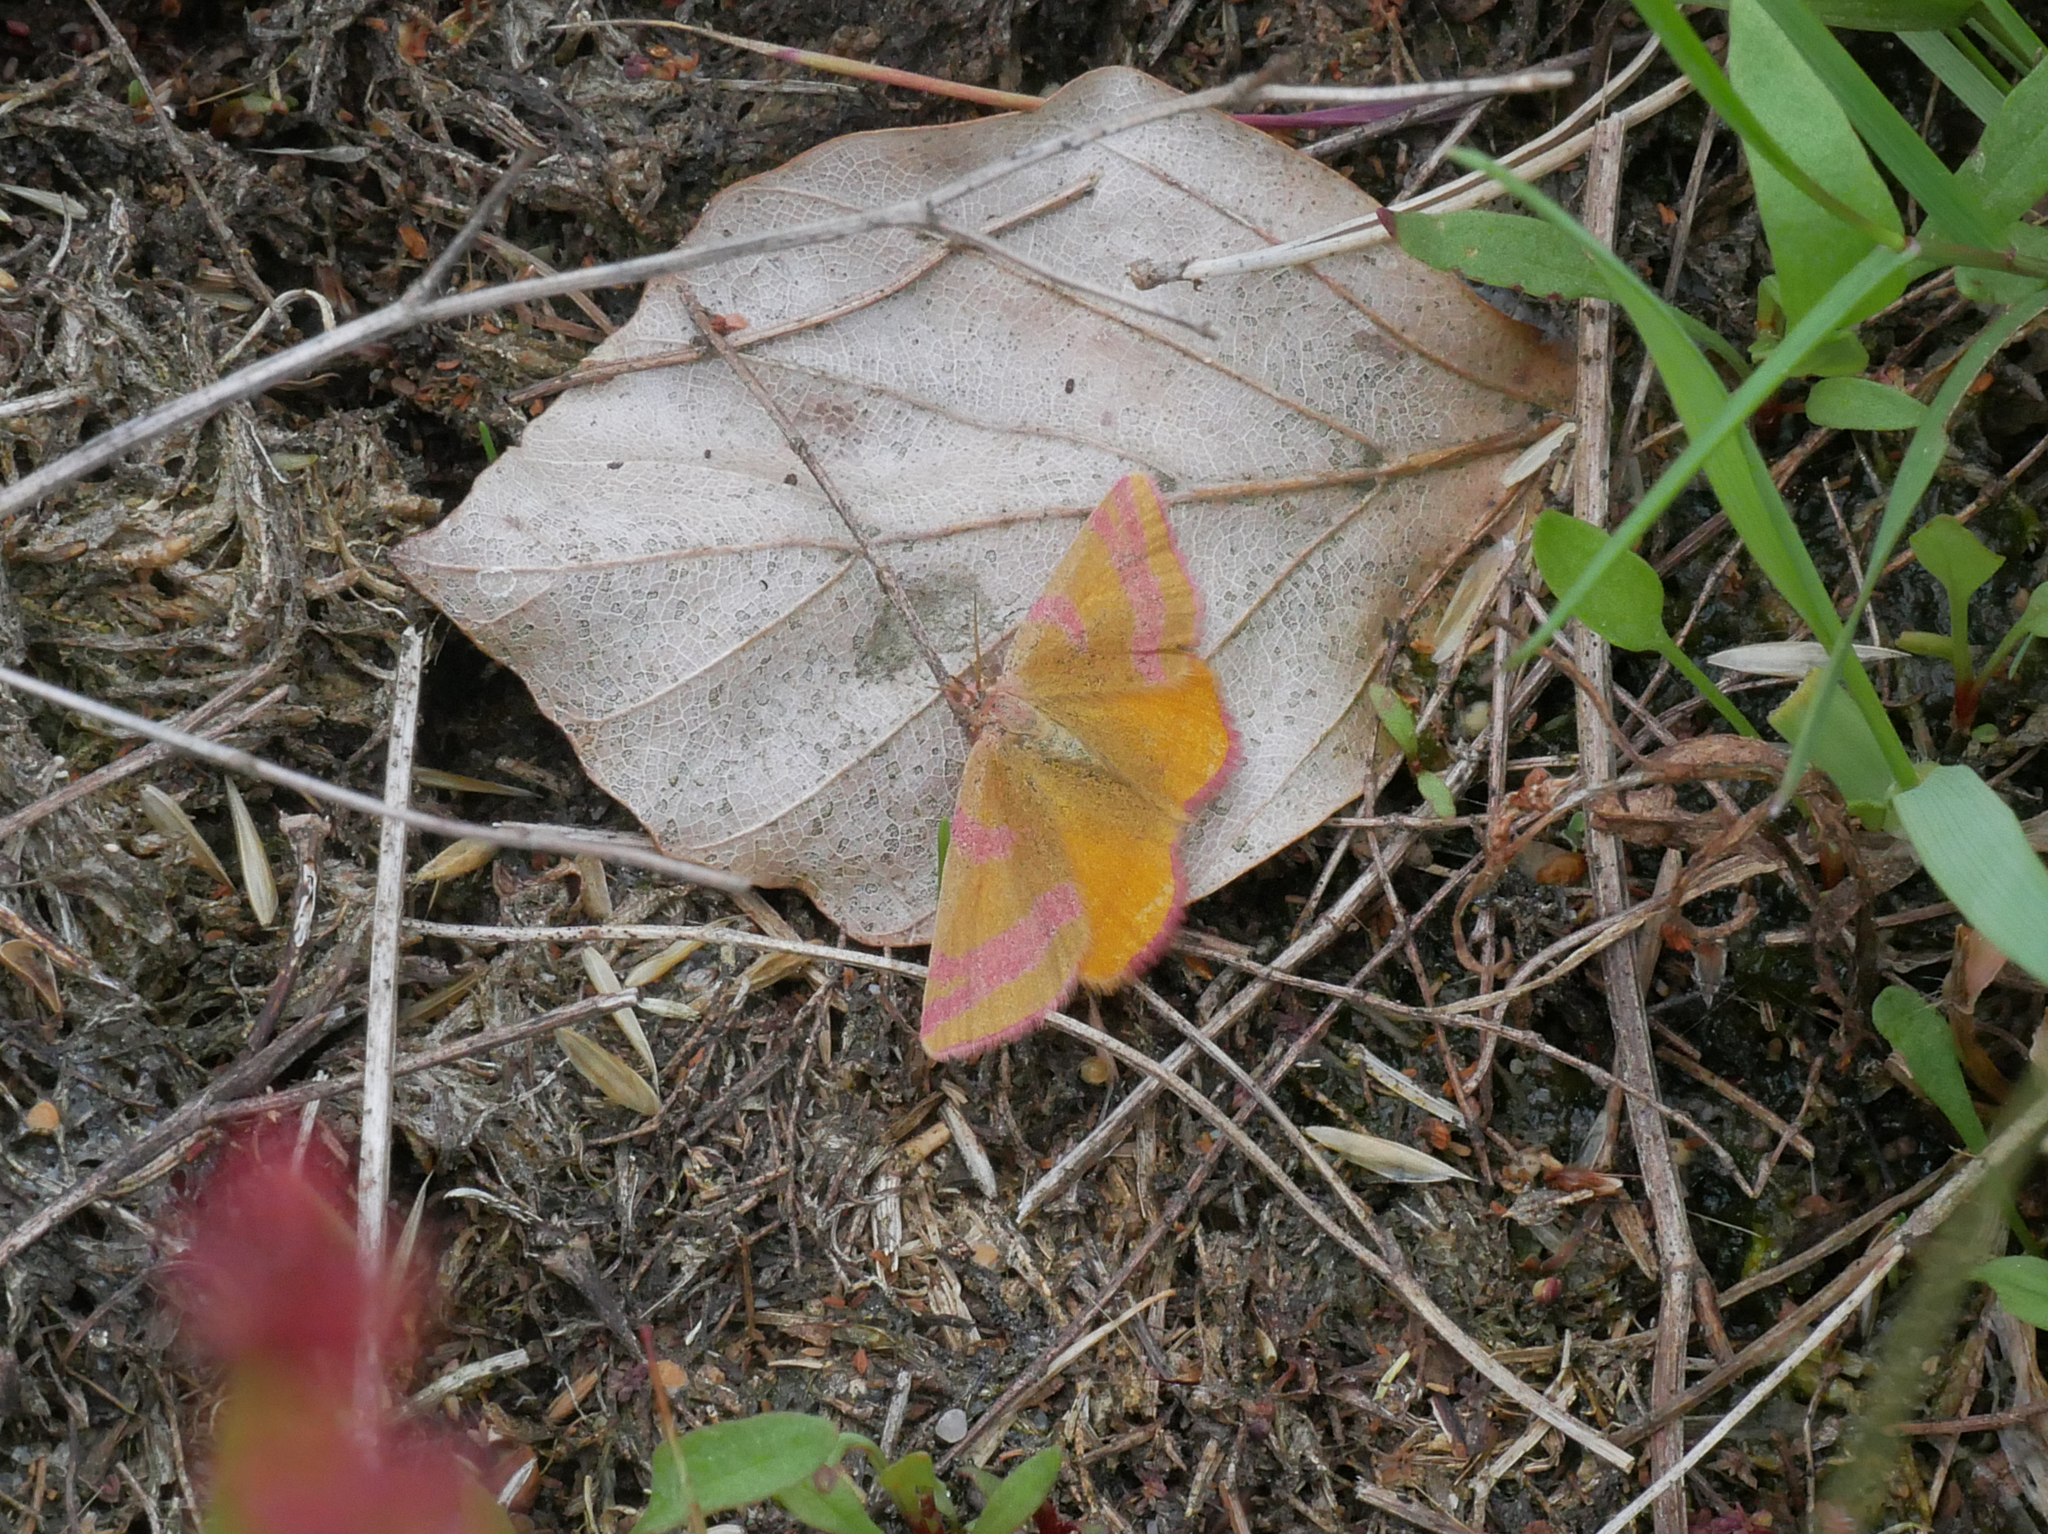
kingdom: Animalia
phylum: Arthropoda
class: Insecta
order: Lepidoptera
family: Geometridae
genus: Lythria
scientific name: Lythria cruentaria
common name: Purple-barred yellow
